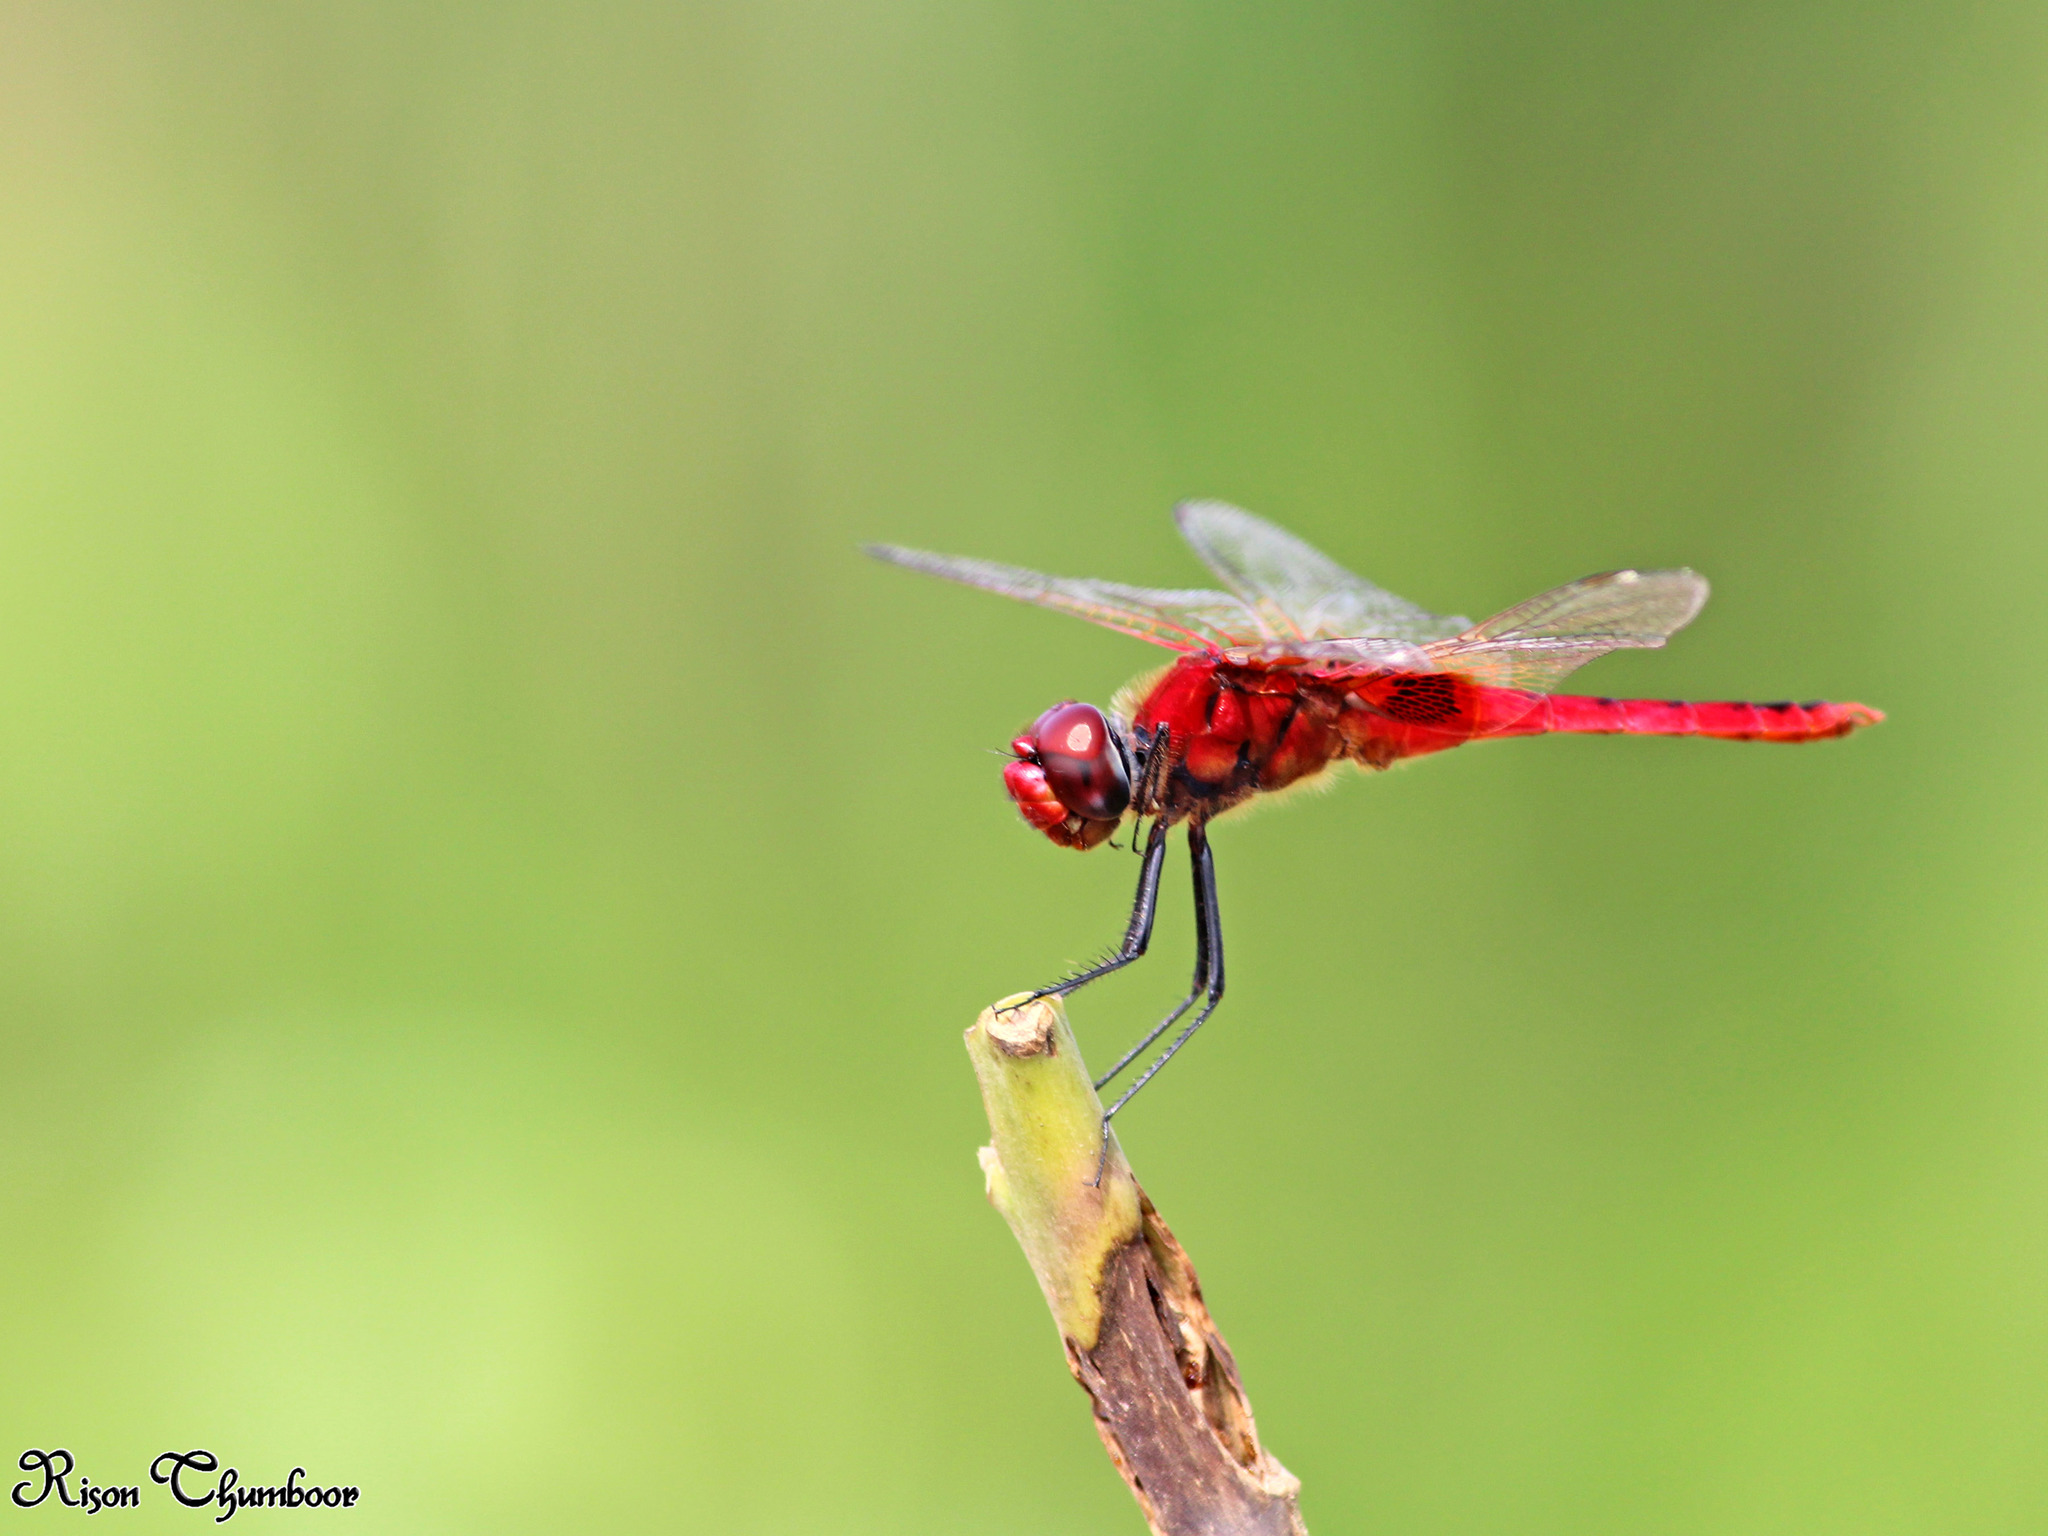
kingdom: Animalia
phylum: Arthropoda
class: Insecta
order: Odonata
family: Libellulidae
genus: Urothemis
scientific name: Urothemis signata
